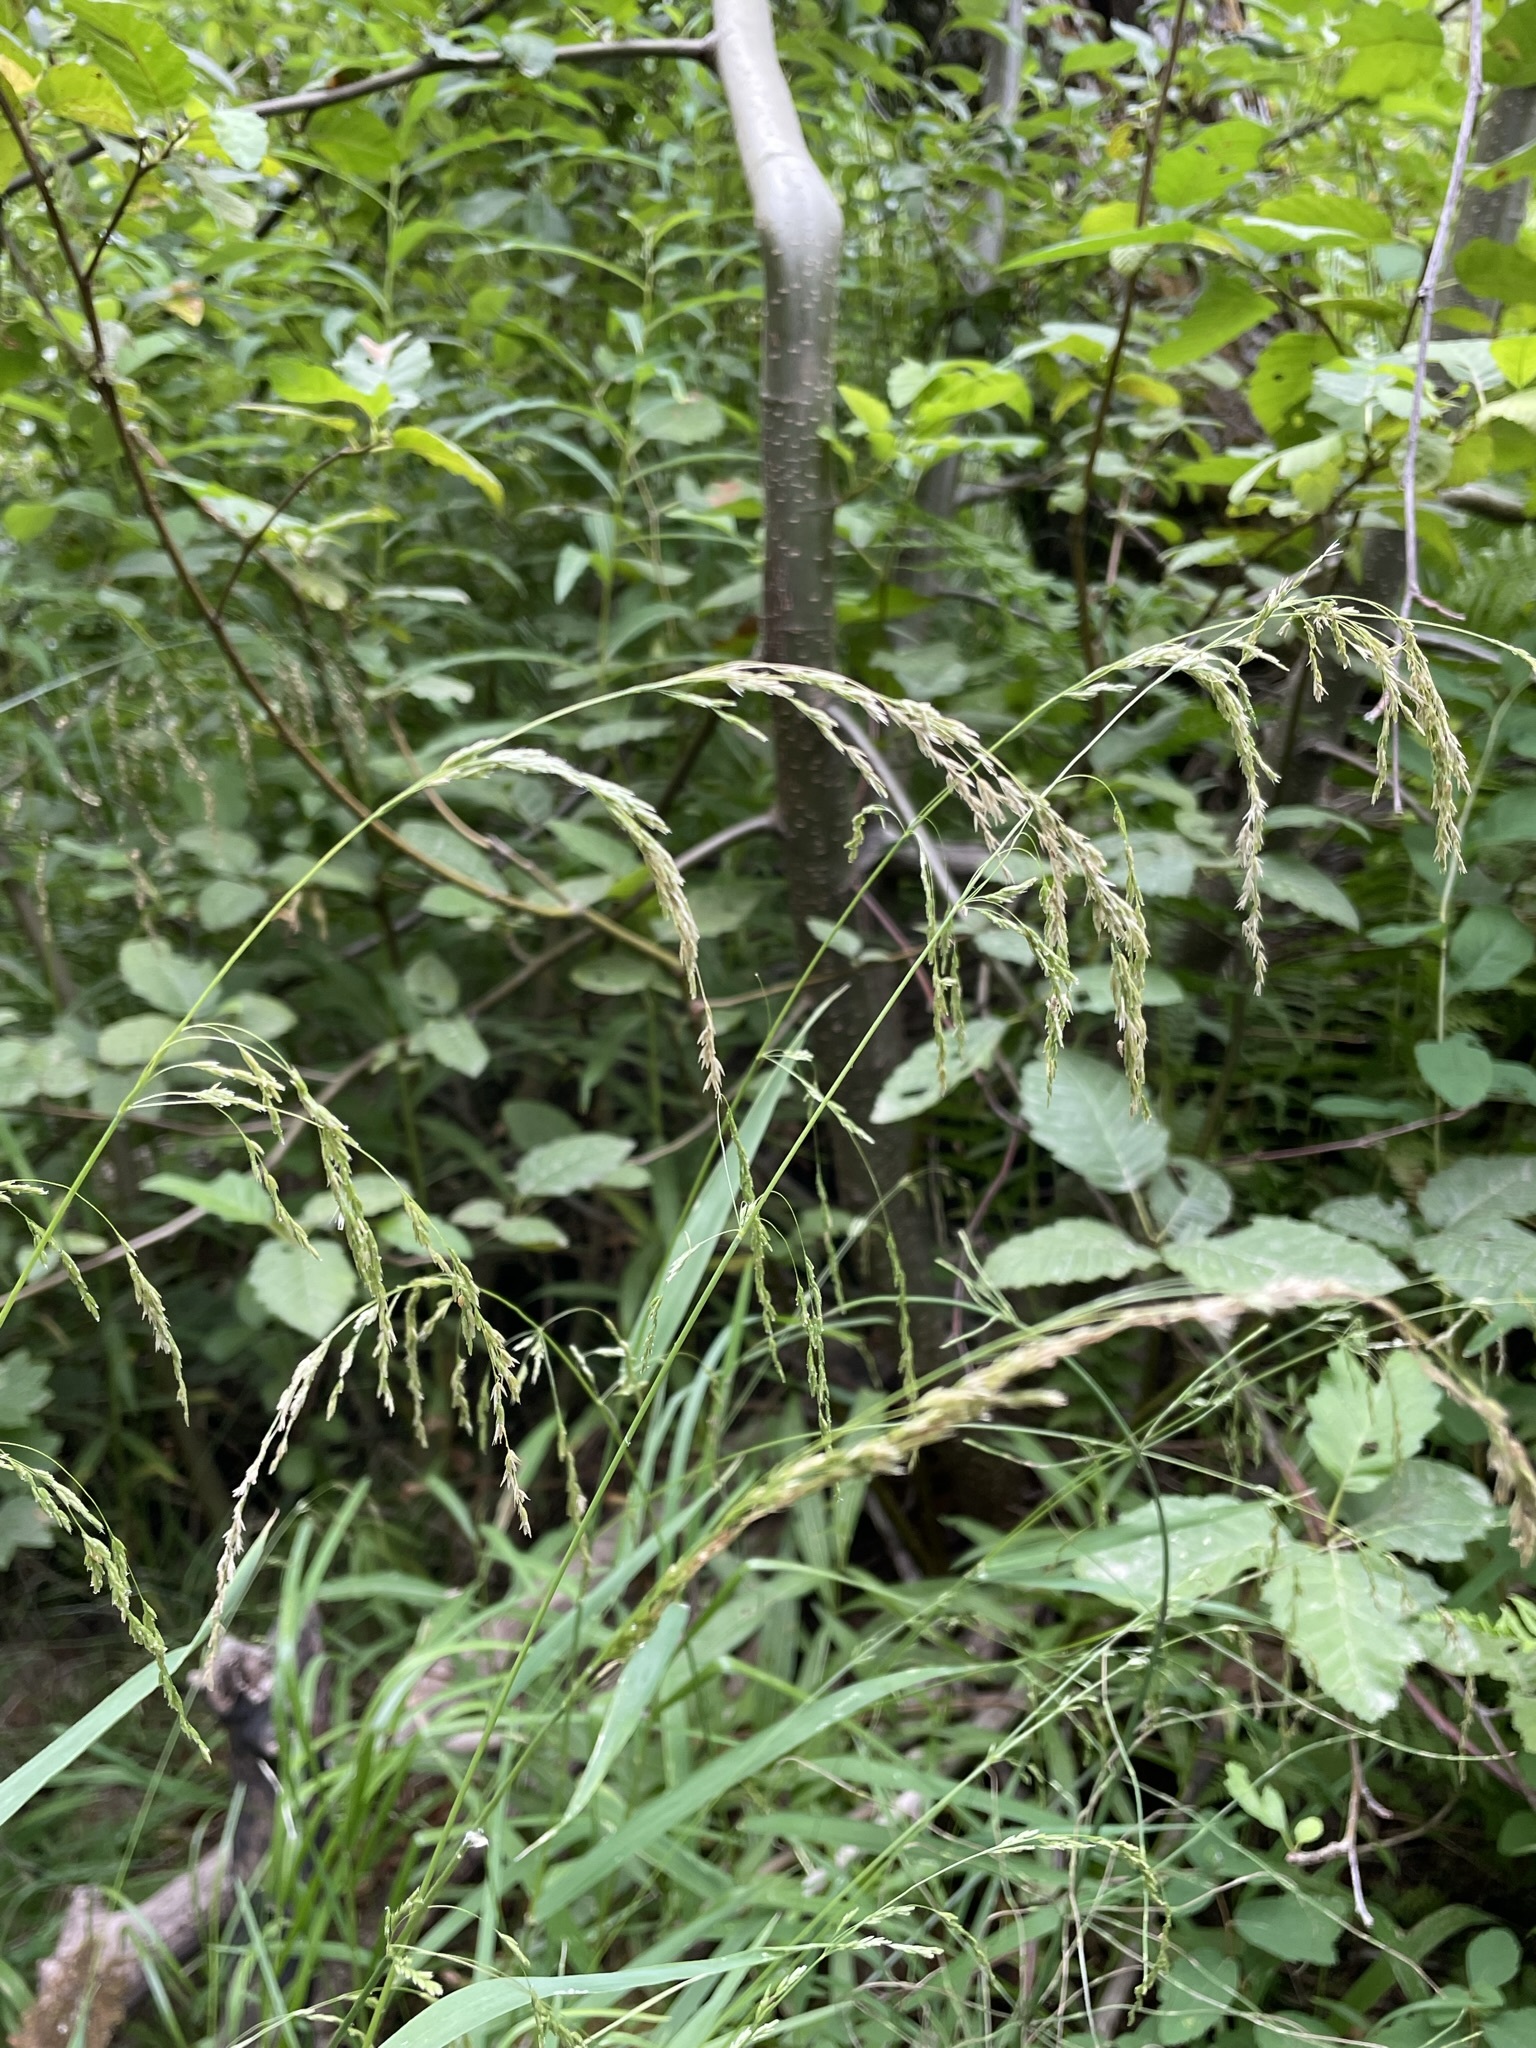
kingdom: Plantae
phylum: Tracheophyta
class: Liliopsida
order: Poales
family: Poaceae
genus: Cinna
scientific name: Cinna latifolia
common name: Drooping woodreed
